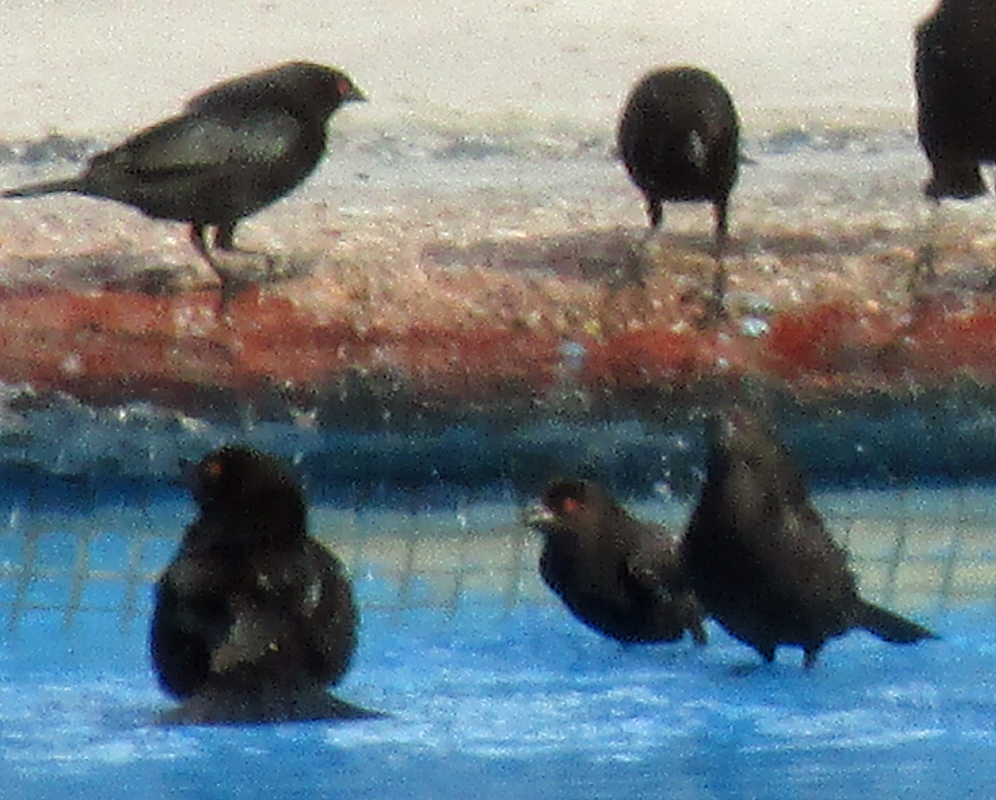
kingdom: Animalia
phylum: Chordata
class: Aves
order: Passeriformes
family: Icteridae
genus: Molothrus
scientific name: Molothrus aeneus
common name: Bronzed cowbird
